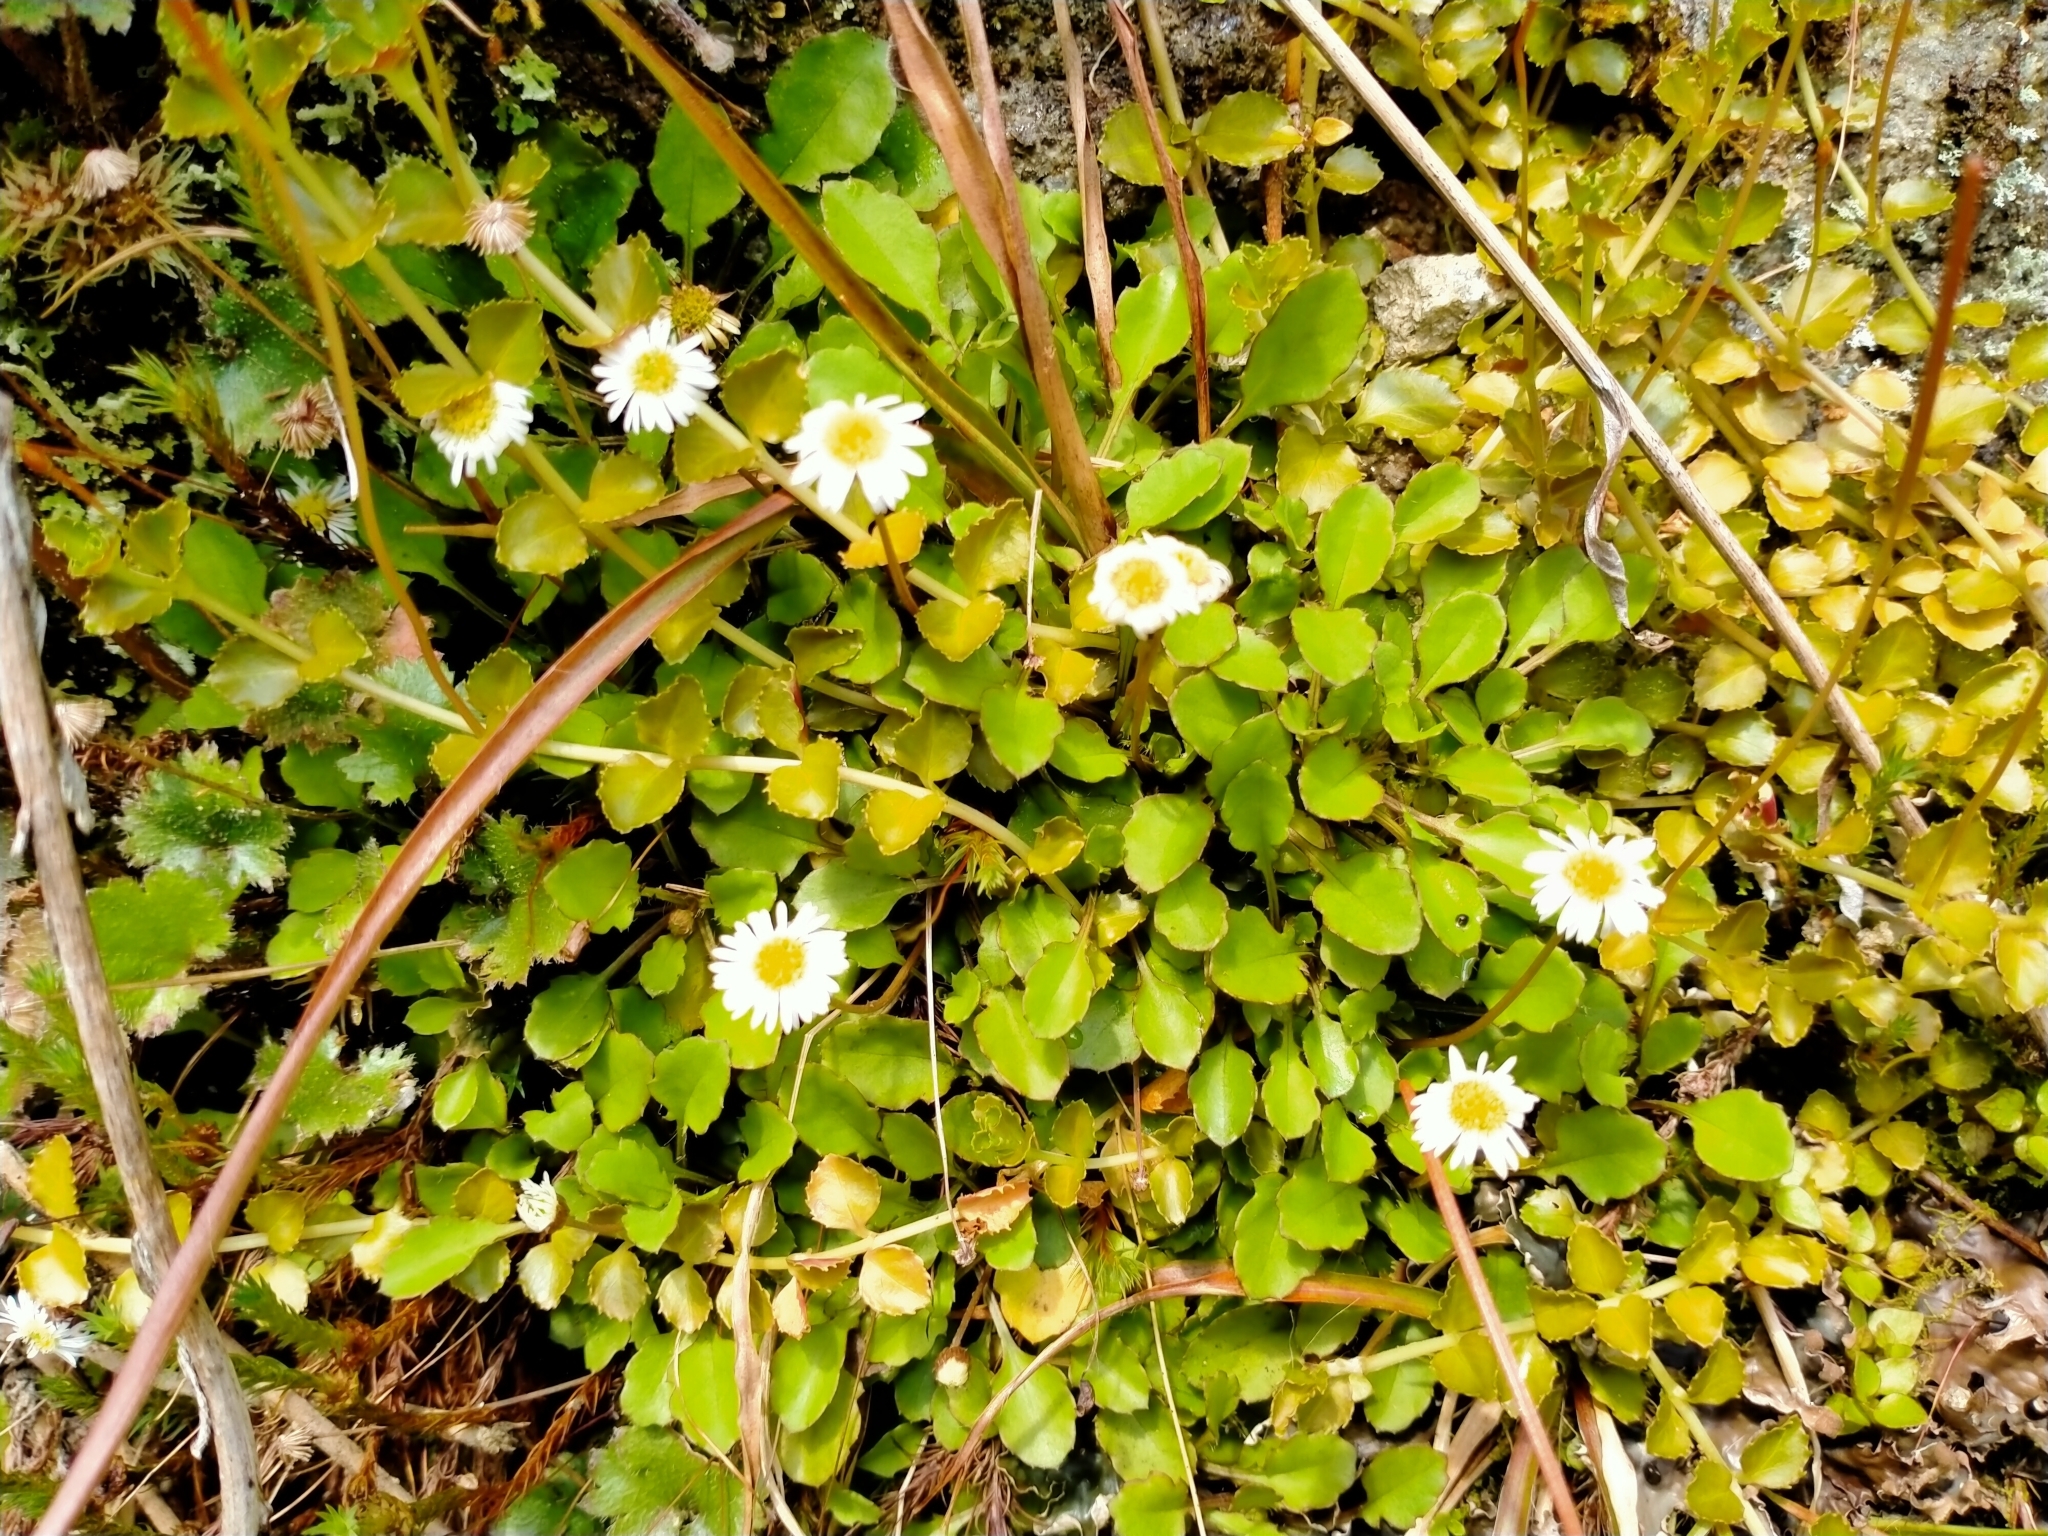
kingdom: Plantae
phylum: Tracheophyta
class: Magnoliopsida
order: Asterales
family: Asteraceae
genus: Lagenophora
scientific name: Lagenophora pumila
